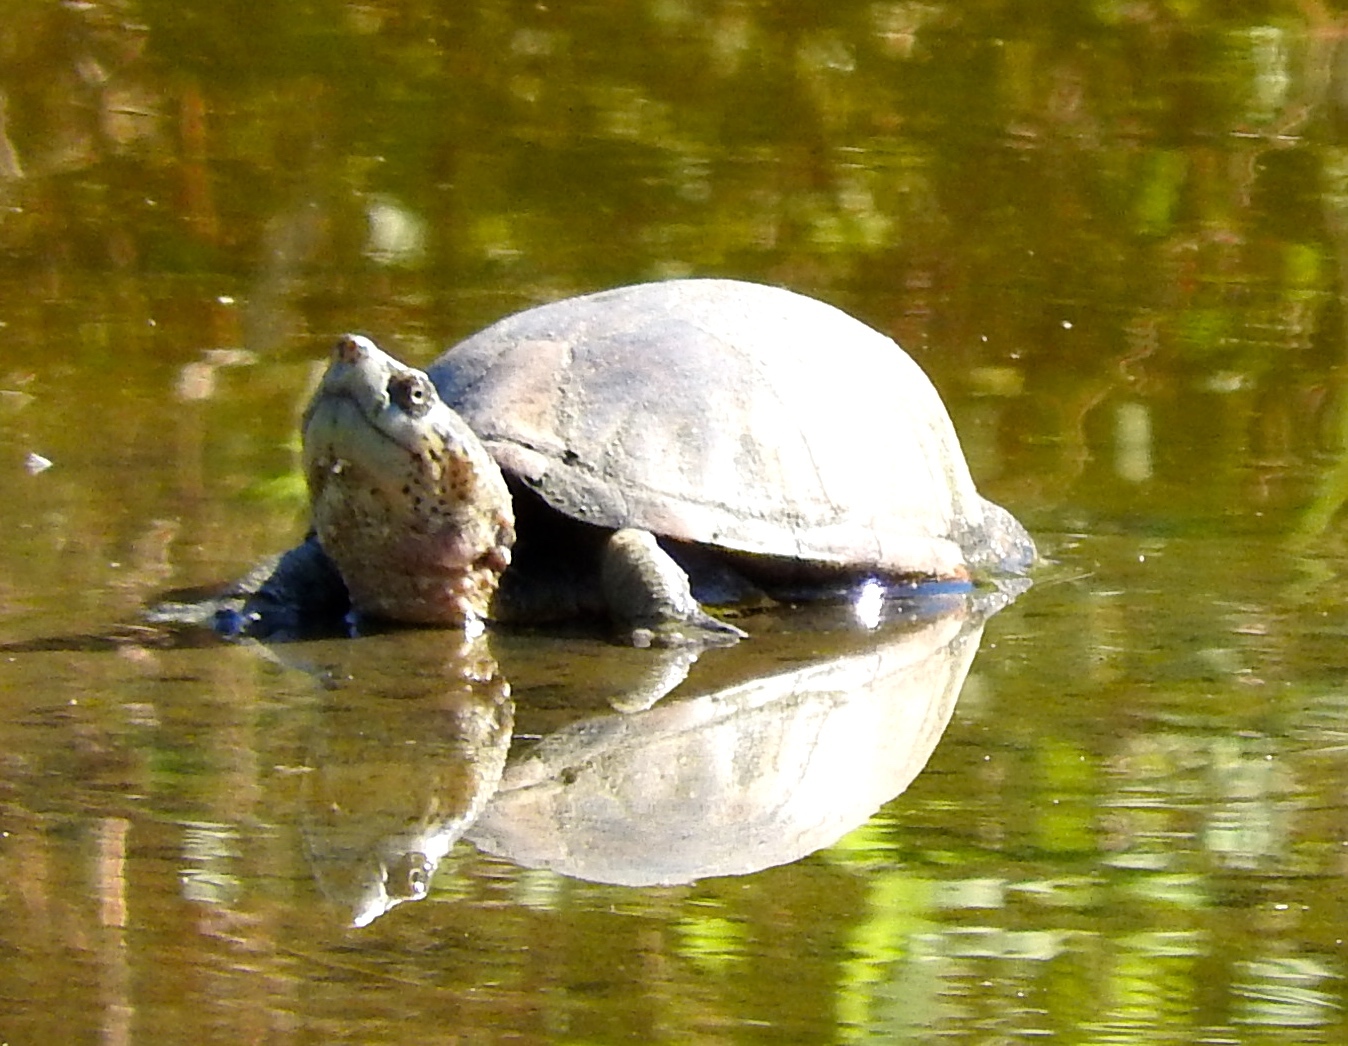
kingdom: Animalia
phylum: Chordata
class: Testudines
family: Kinosternidae
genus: Kinosternon
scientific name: Kinosternon integrum
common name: Mexican mud turtle
